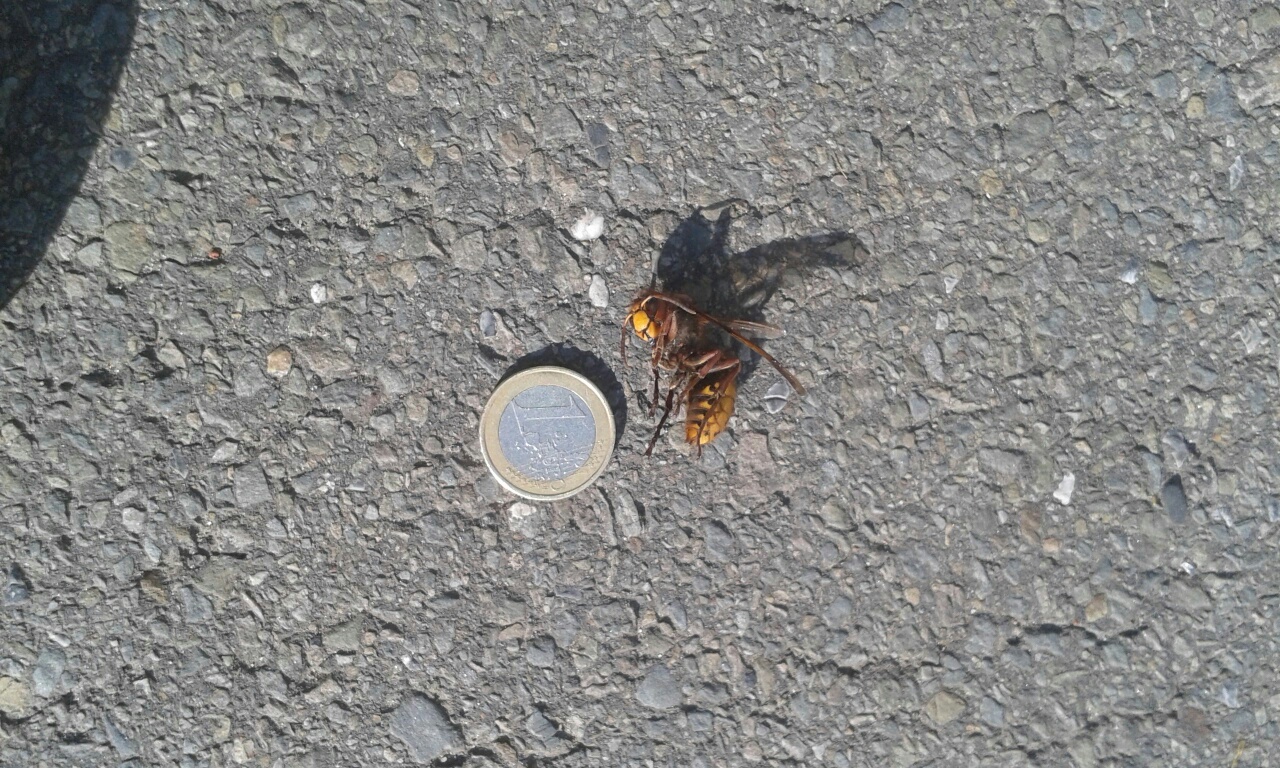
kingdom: Animalia
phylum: Arthropoda
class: Insecta
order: Hymenoptera
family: Vespidae
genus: Vespa
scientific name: Vespa crabro
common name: Hornet
